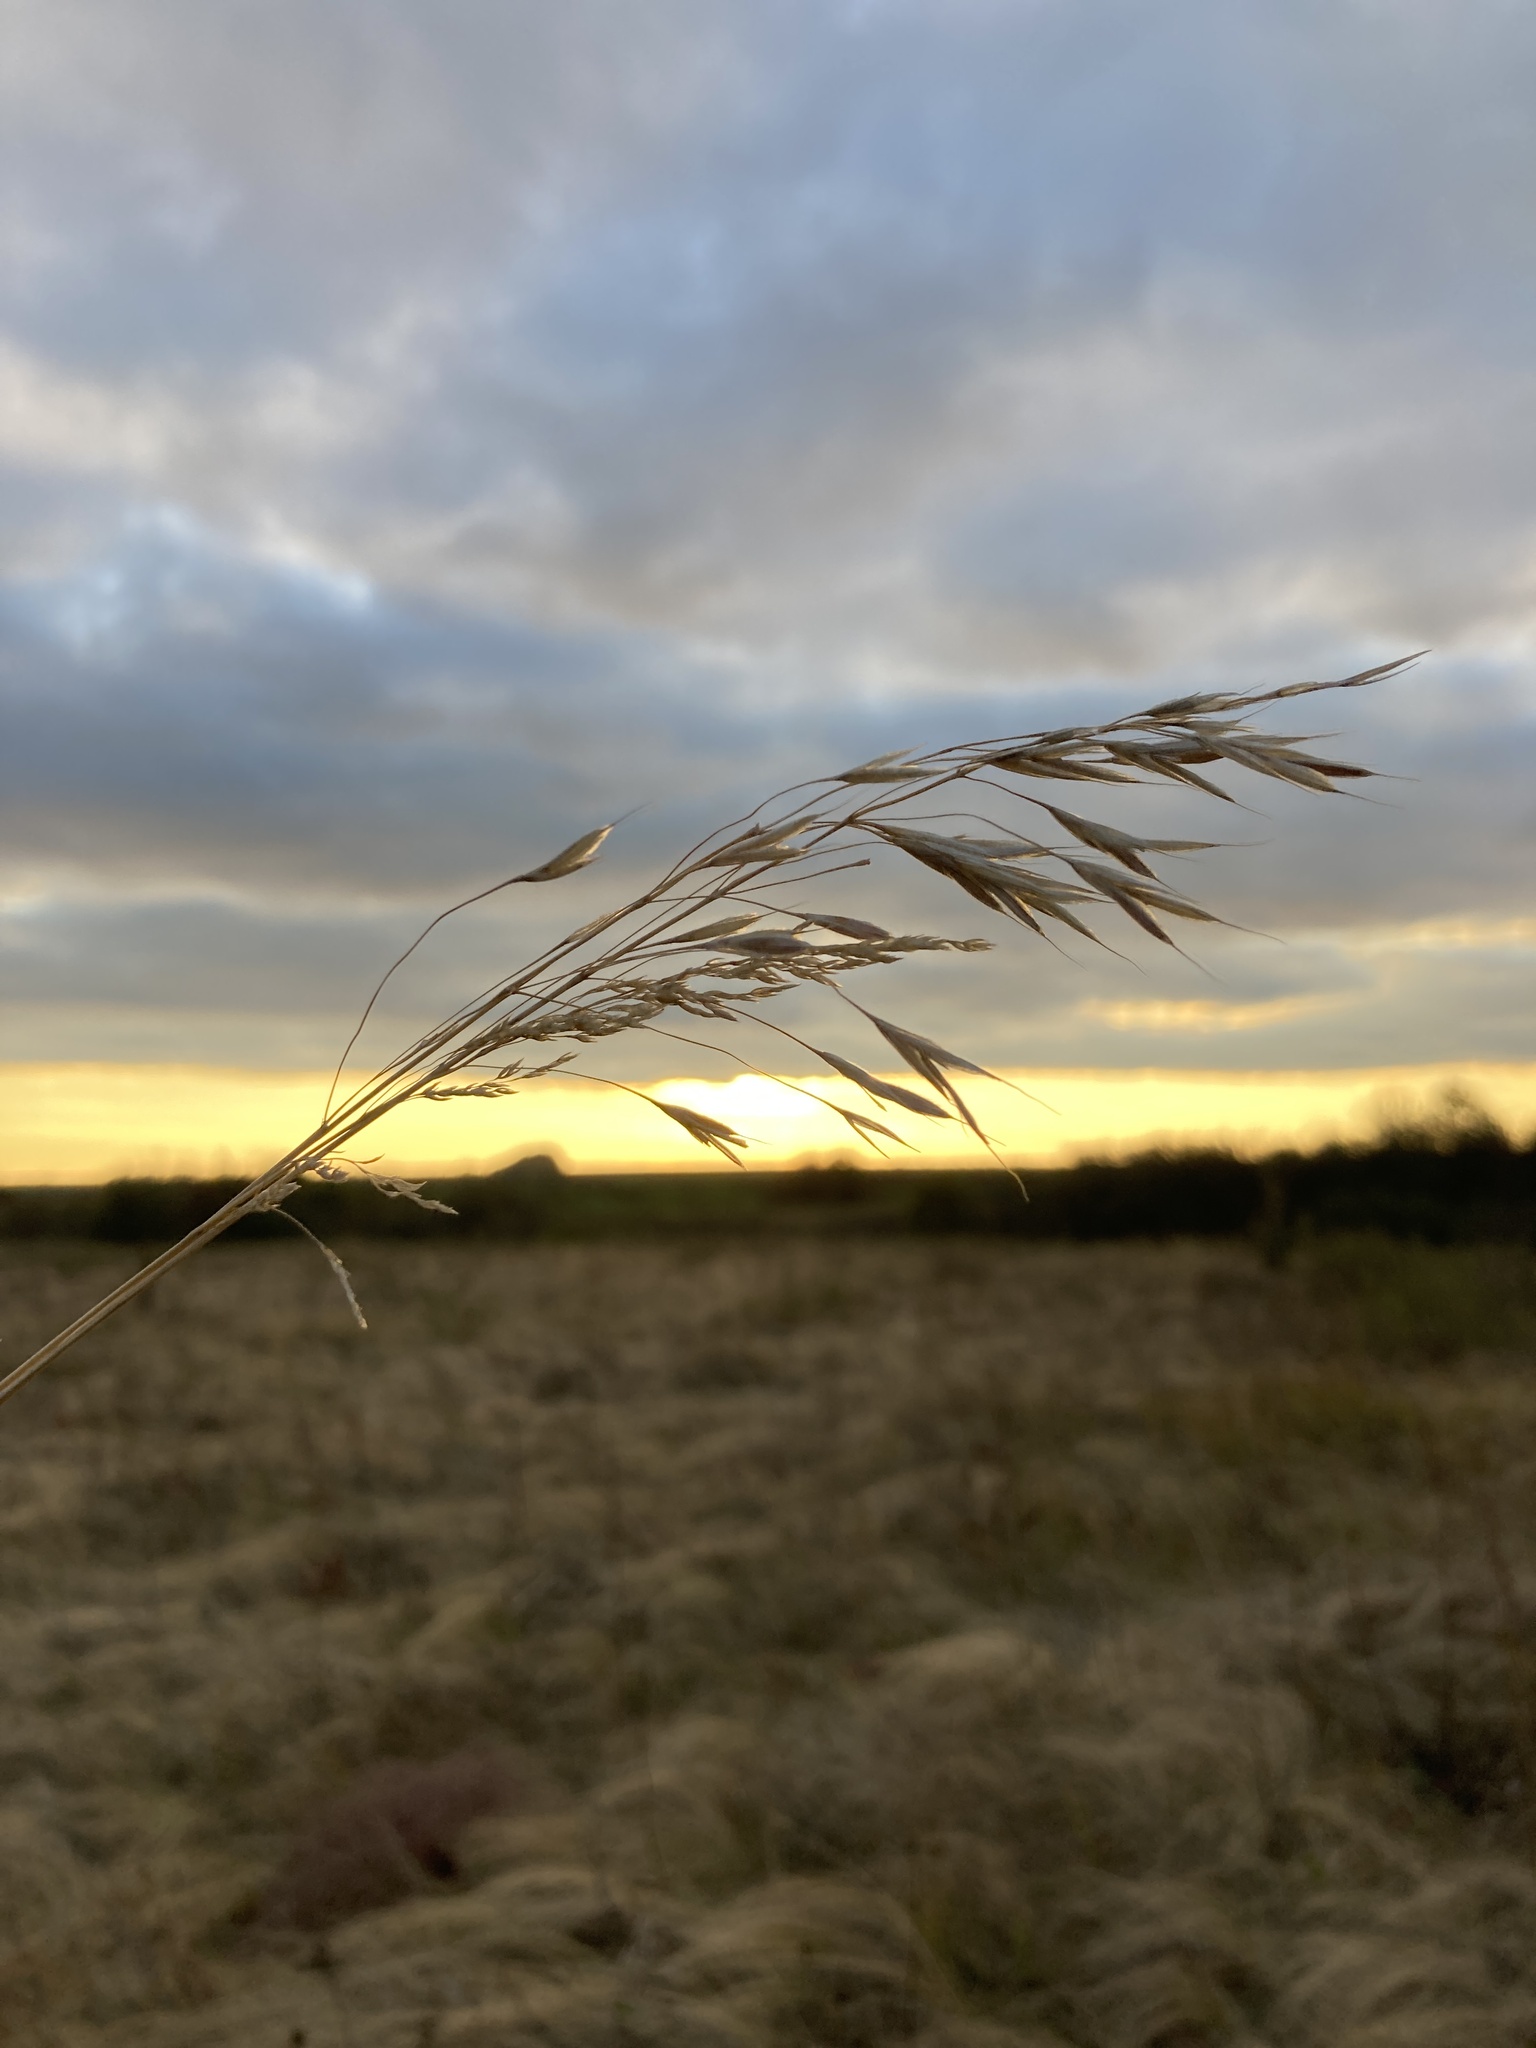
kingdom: Plantae
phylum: Tracheophyta
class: Liliopsida
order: Poales
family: Poaceae
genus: Bromus
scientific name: Bromus riparius
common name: Meadow brome
